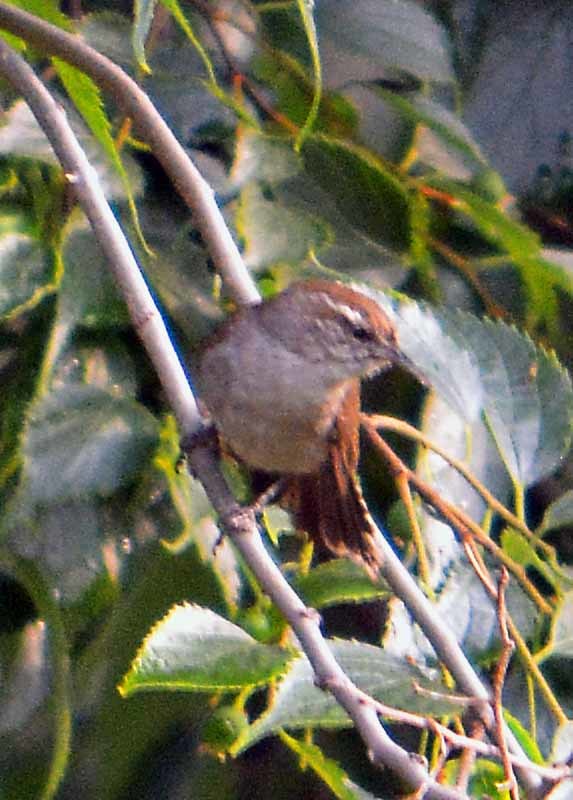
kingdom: Animalia
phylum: Chordata
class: Aves
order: Passeriformes
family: Troglodytidae
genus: Thryomanes
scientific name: Thryomanes bewickii
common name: Bewick's wren
